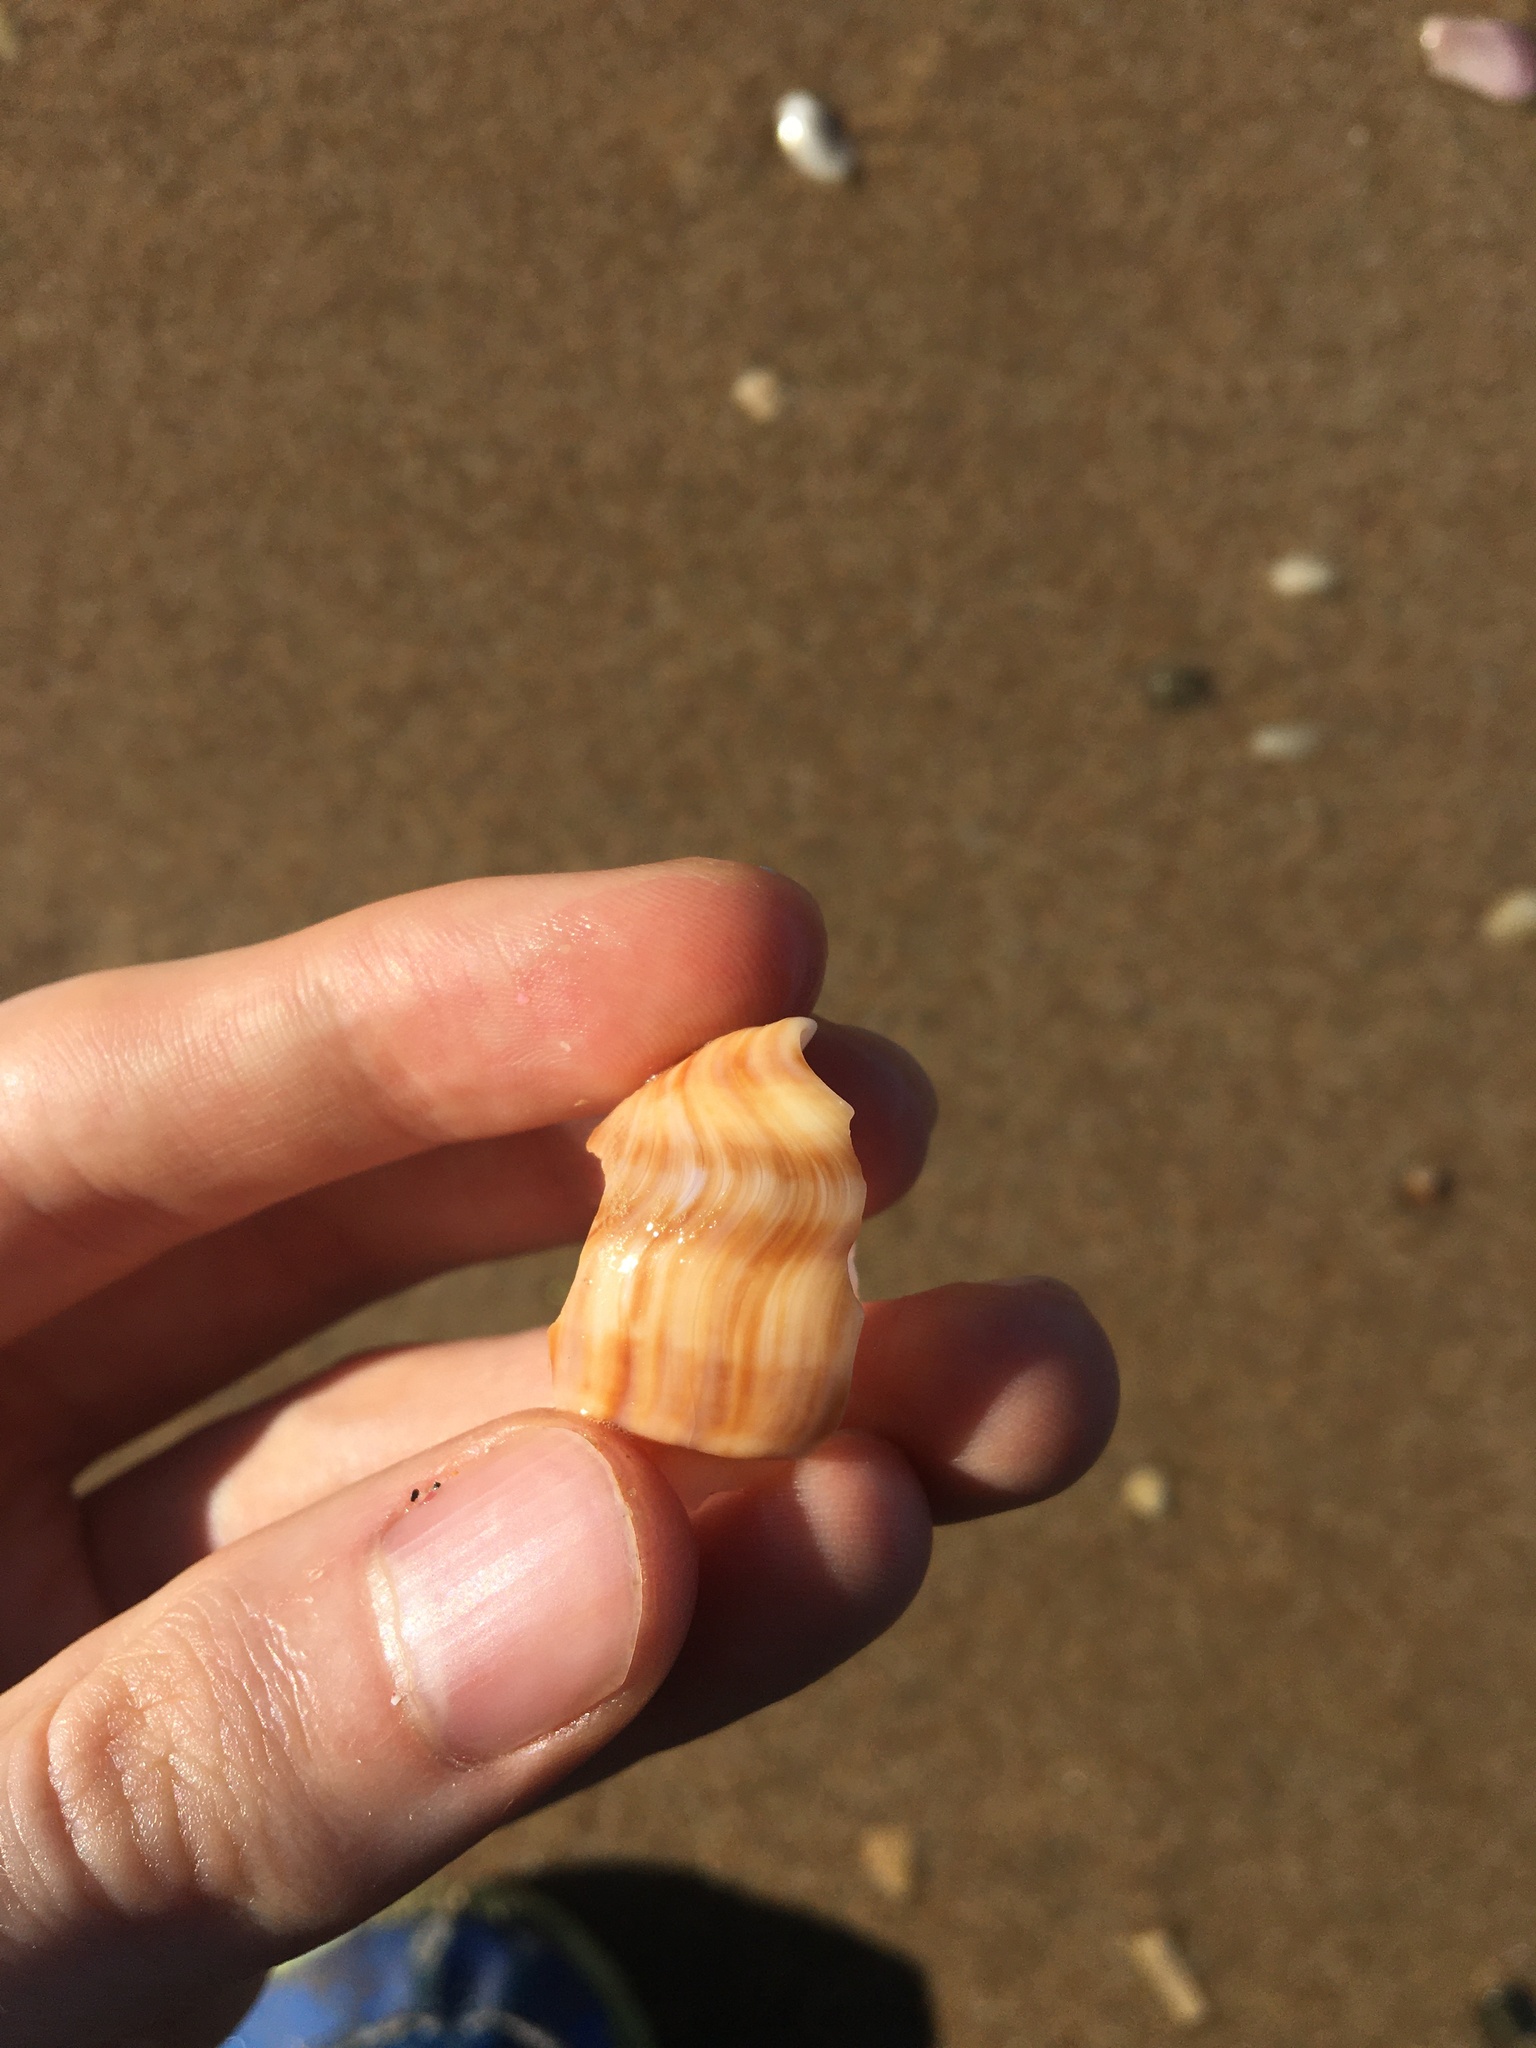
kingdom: Animalia
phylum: Mollusca
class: Gastropoda
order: Littorinimorpha
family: Struthiolariidae
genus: Tylospira
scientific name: Tylospira scutulata
